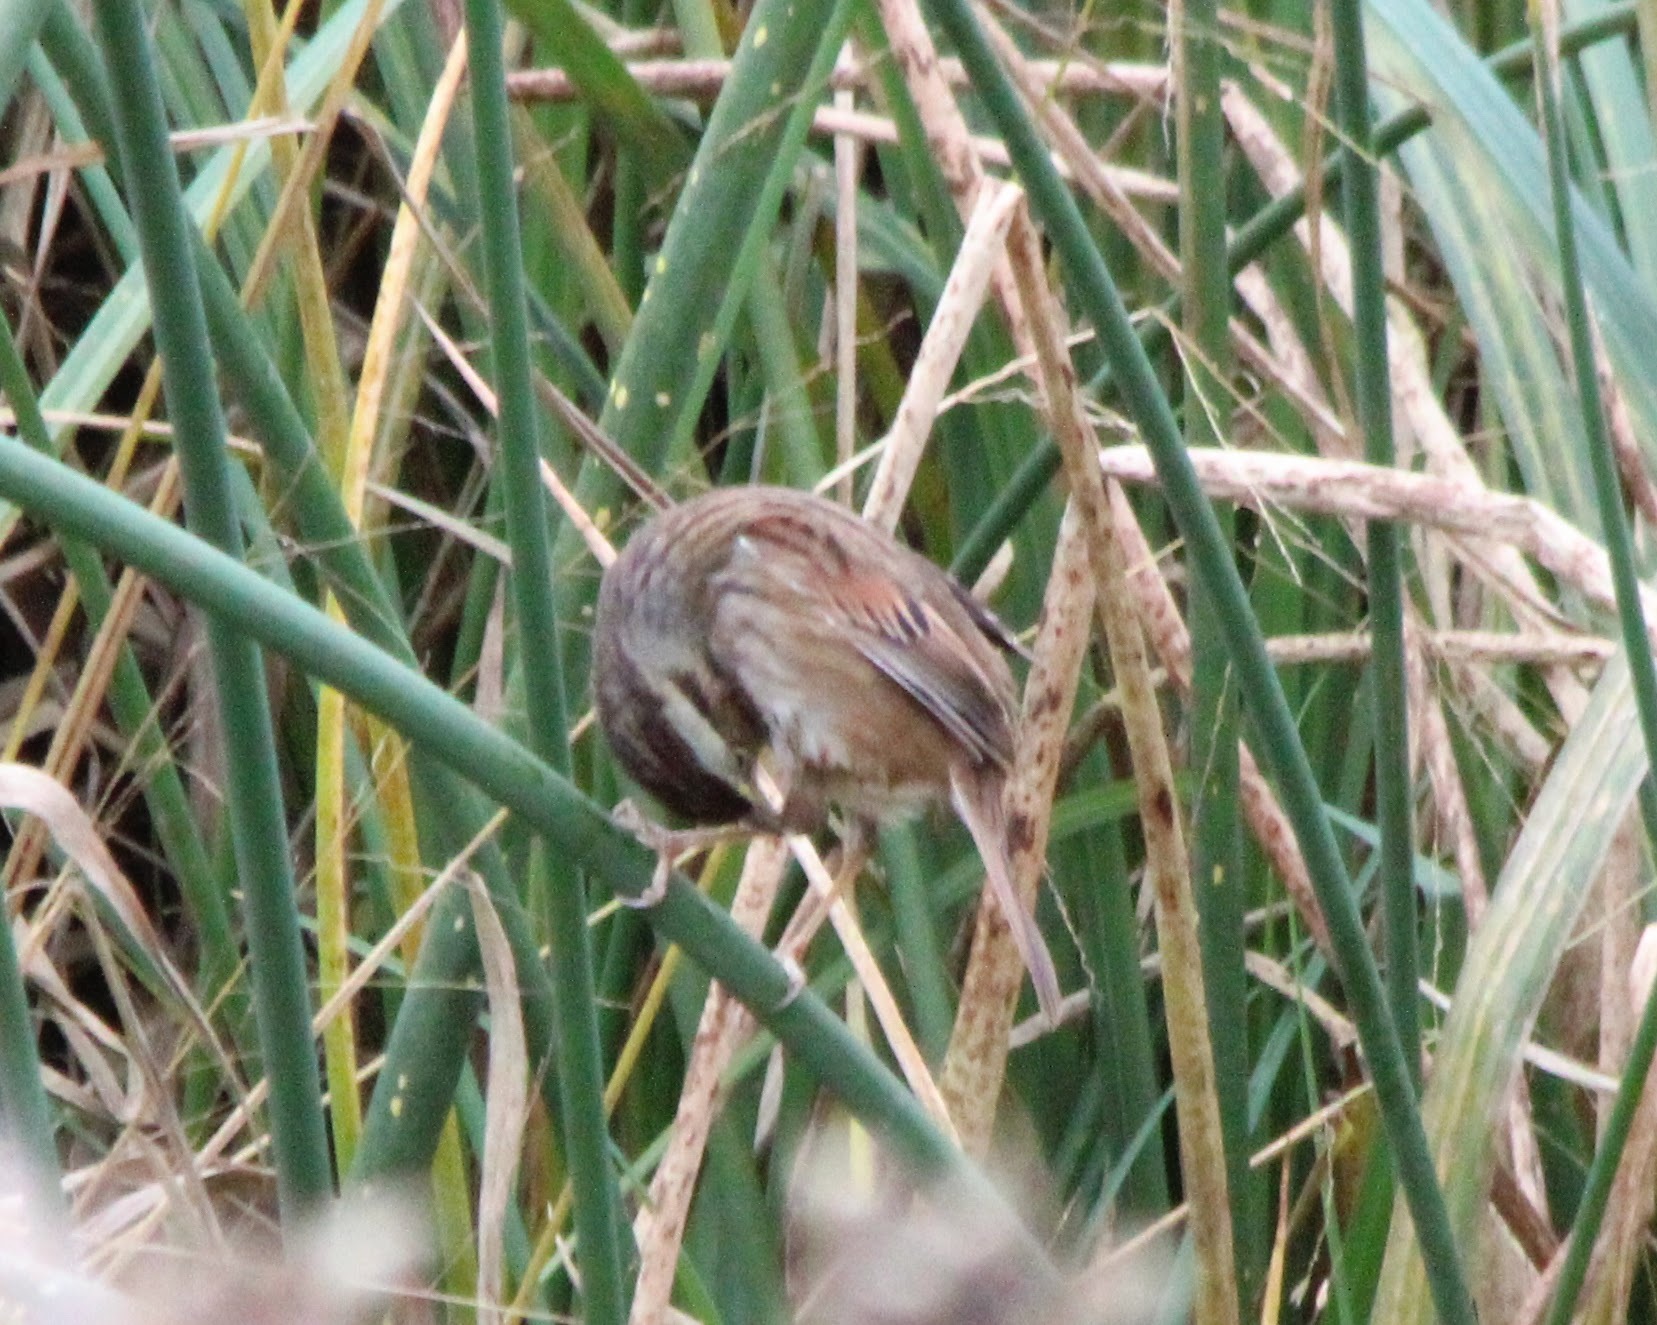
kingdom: Animalia
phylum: Chordata
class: Aves
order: Passeriformes
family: Passerellidae
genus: Melospiza
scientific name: Melospiza georgiana
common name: Swamp sparrow
